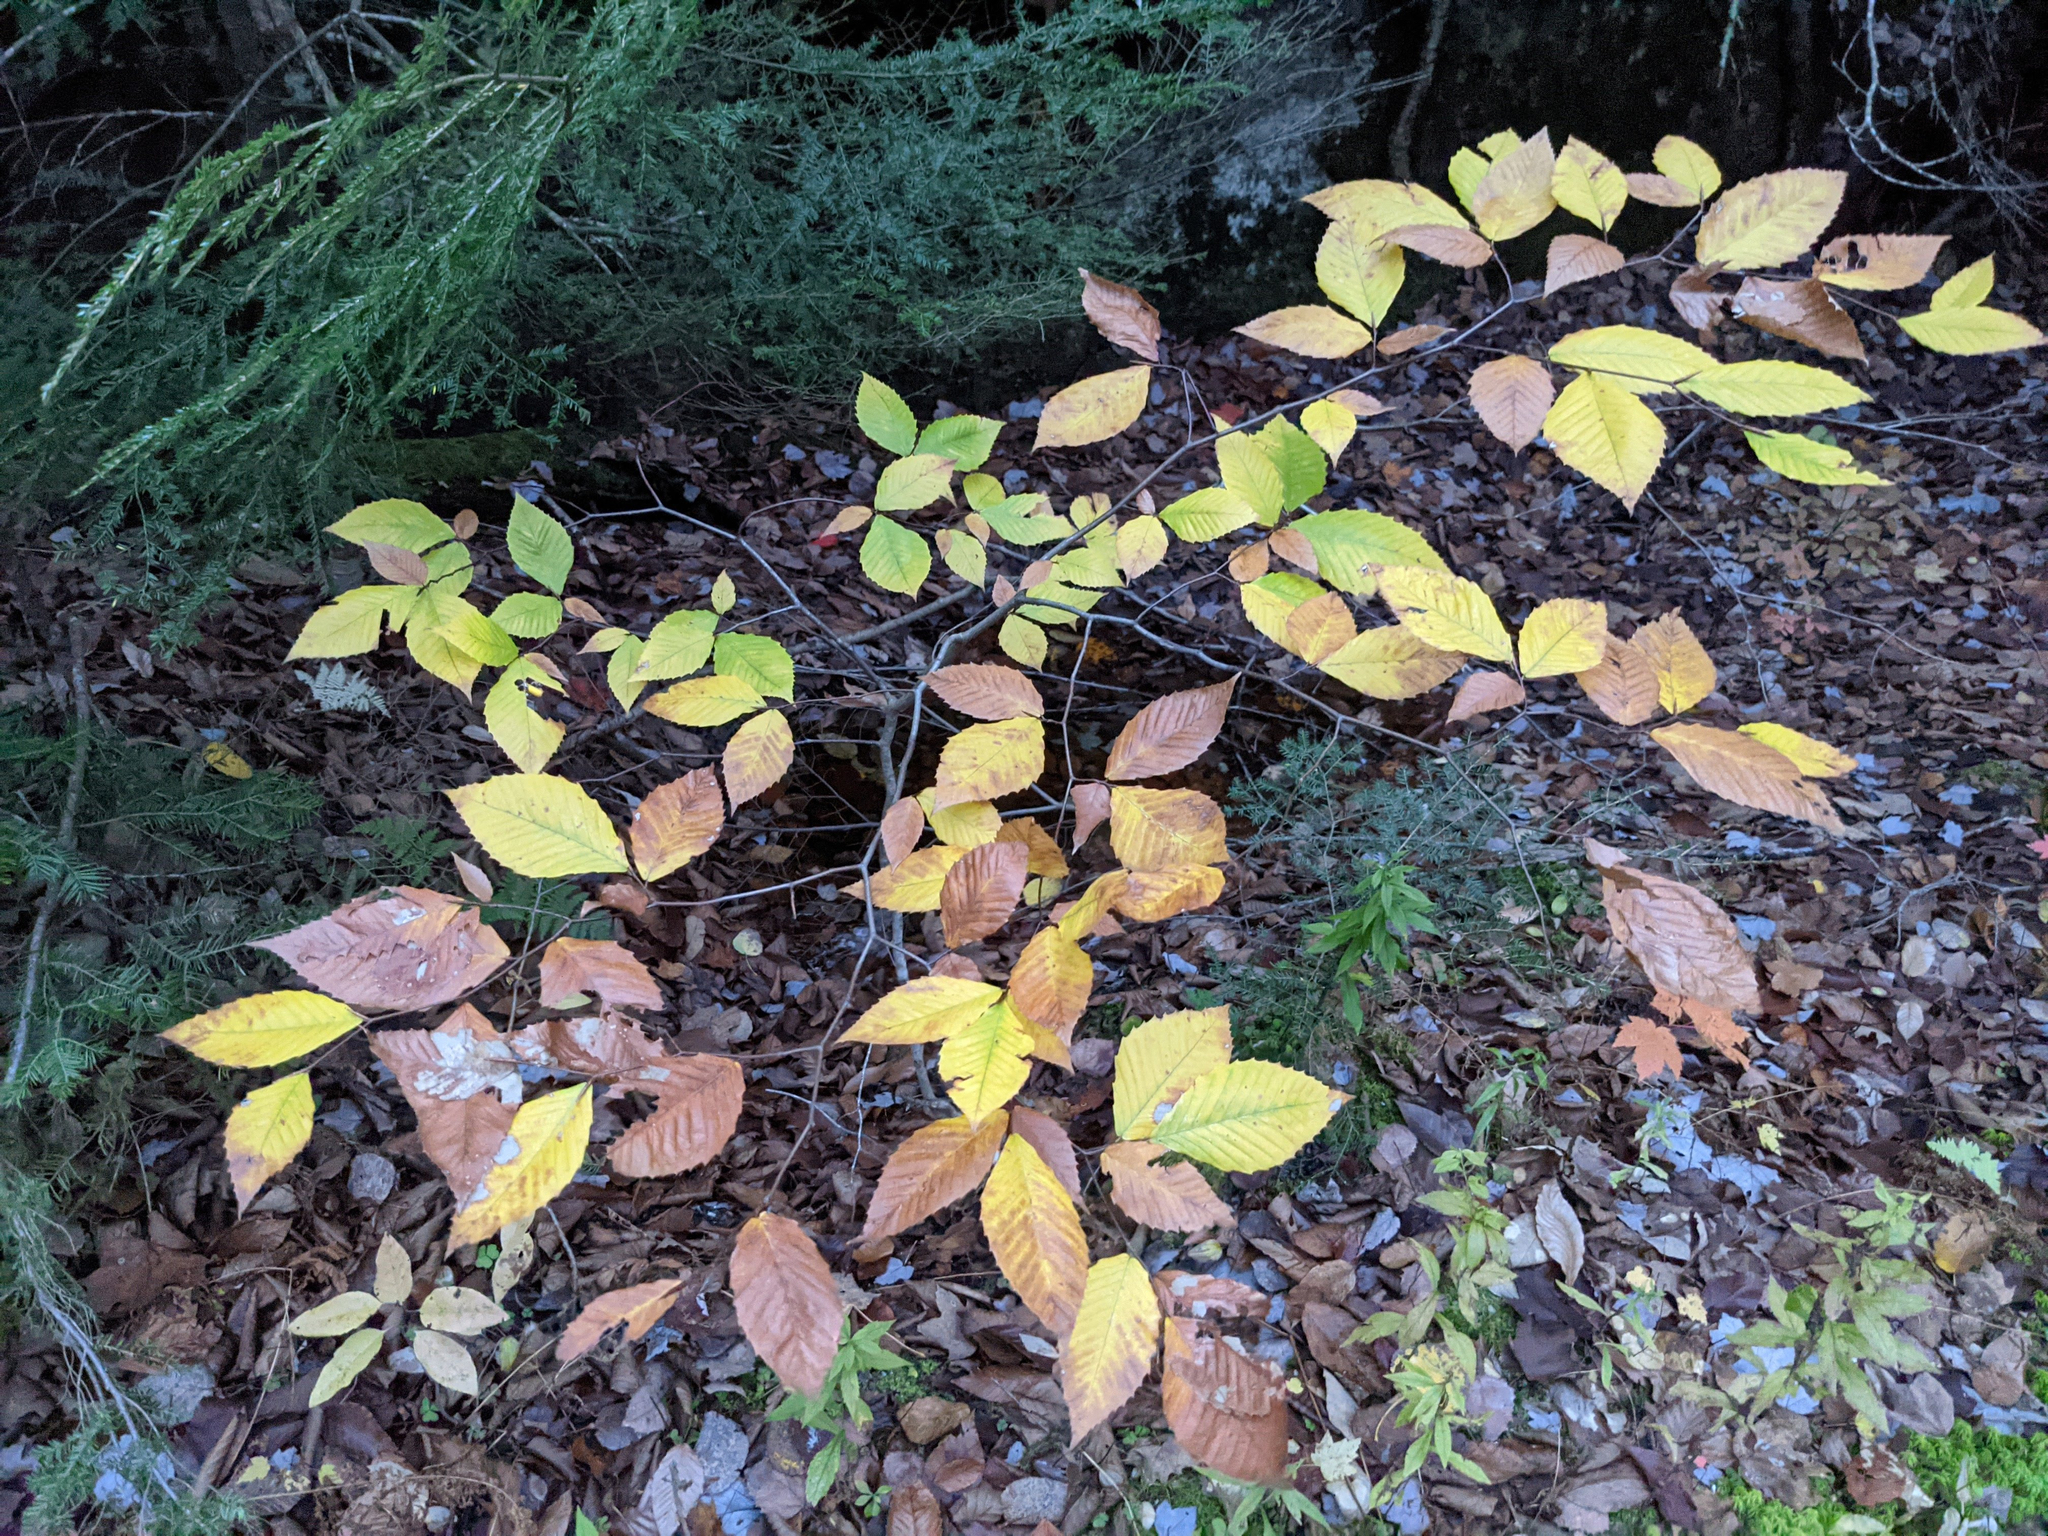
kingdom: Plantae
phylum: Tracheophyta
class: Magnoliopsida
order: Fagales
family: Fagaceae
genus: Fagus
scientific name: Fagus grandifolia
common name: American beech
